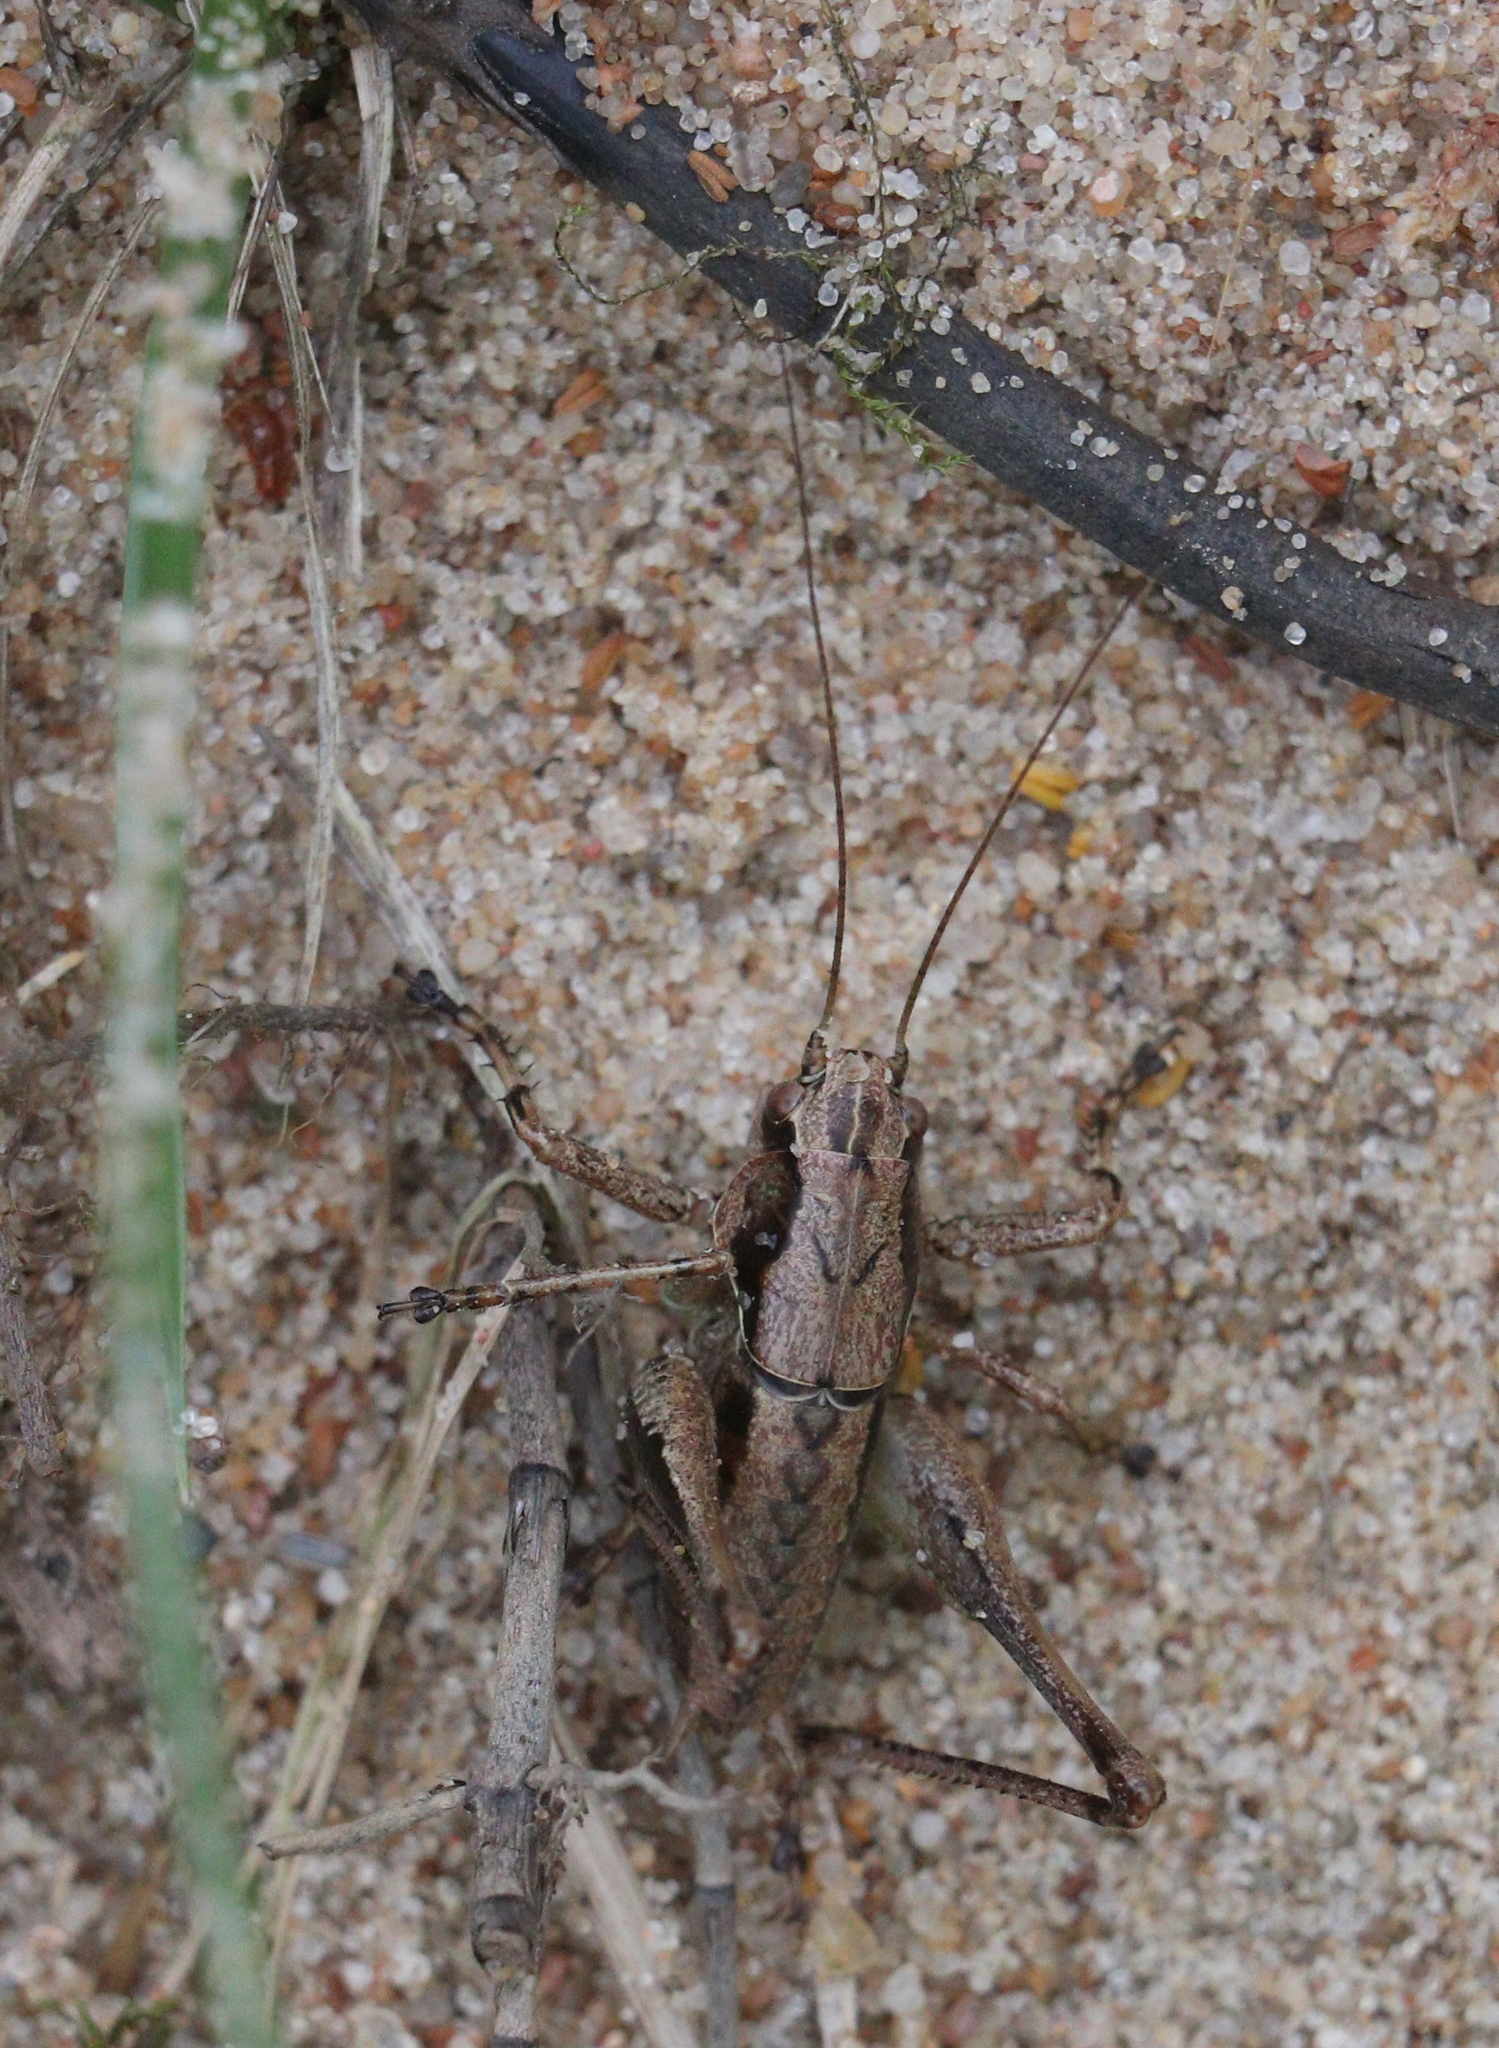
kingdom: Animalia
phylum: Arthropoda
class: Insecta
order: Orthoptera
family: Tettigoniidae
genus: Pholidoptera
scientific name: Pholidoptera griseoaptera
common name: Dark bush-cricket
